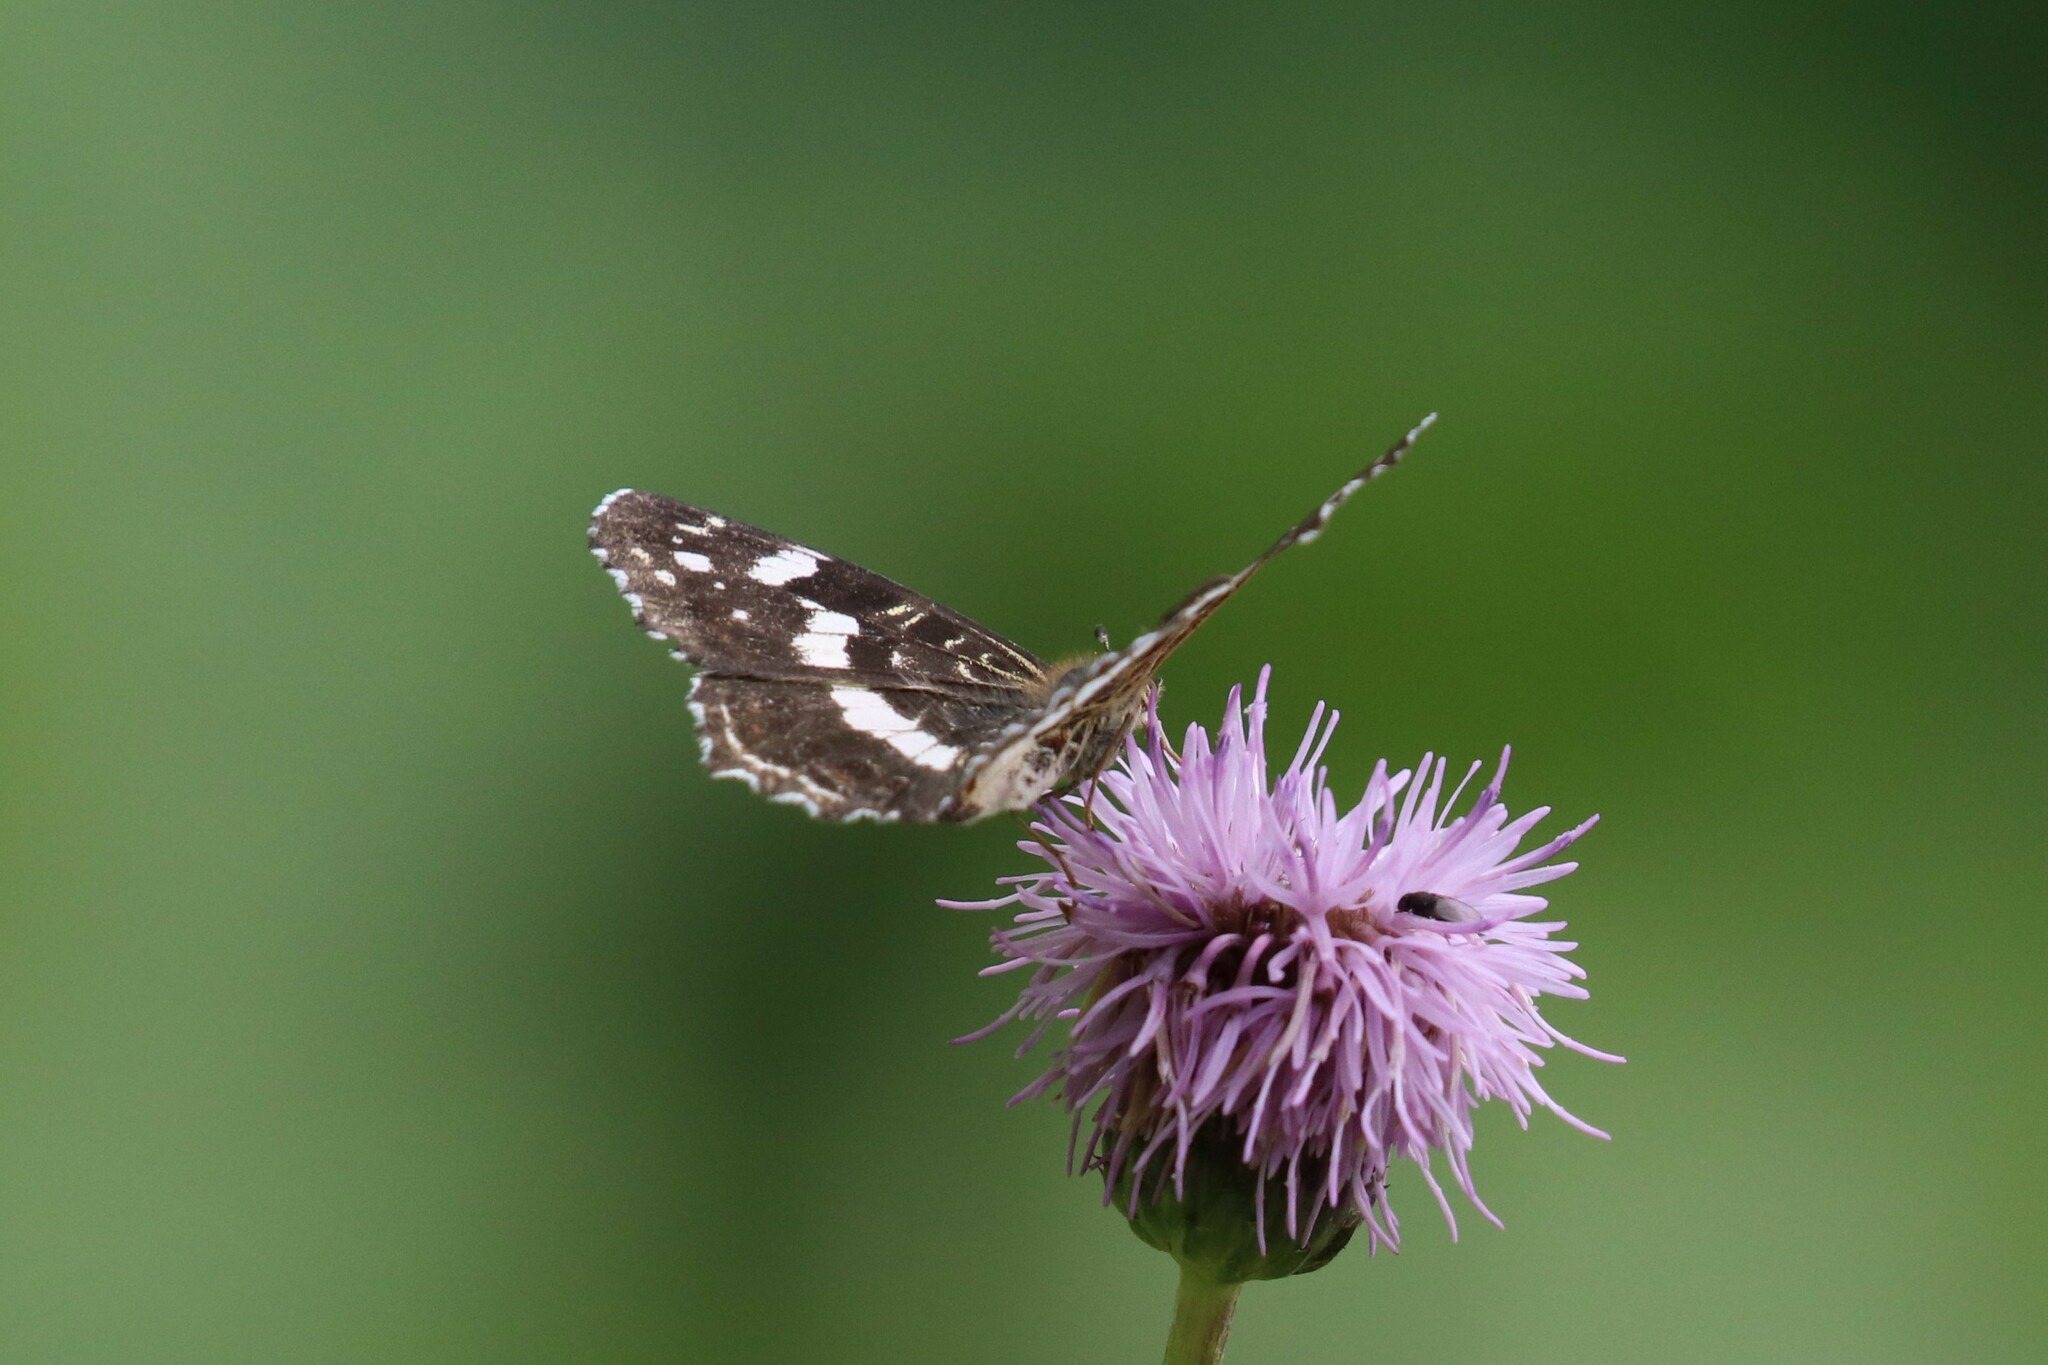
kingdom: Animalia
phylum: Arthropoda
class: Insecta
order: Lepidoptera
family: Nymphalidae
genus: Araschnia
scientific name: Araschnia levana
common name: Map butterfly
